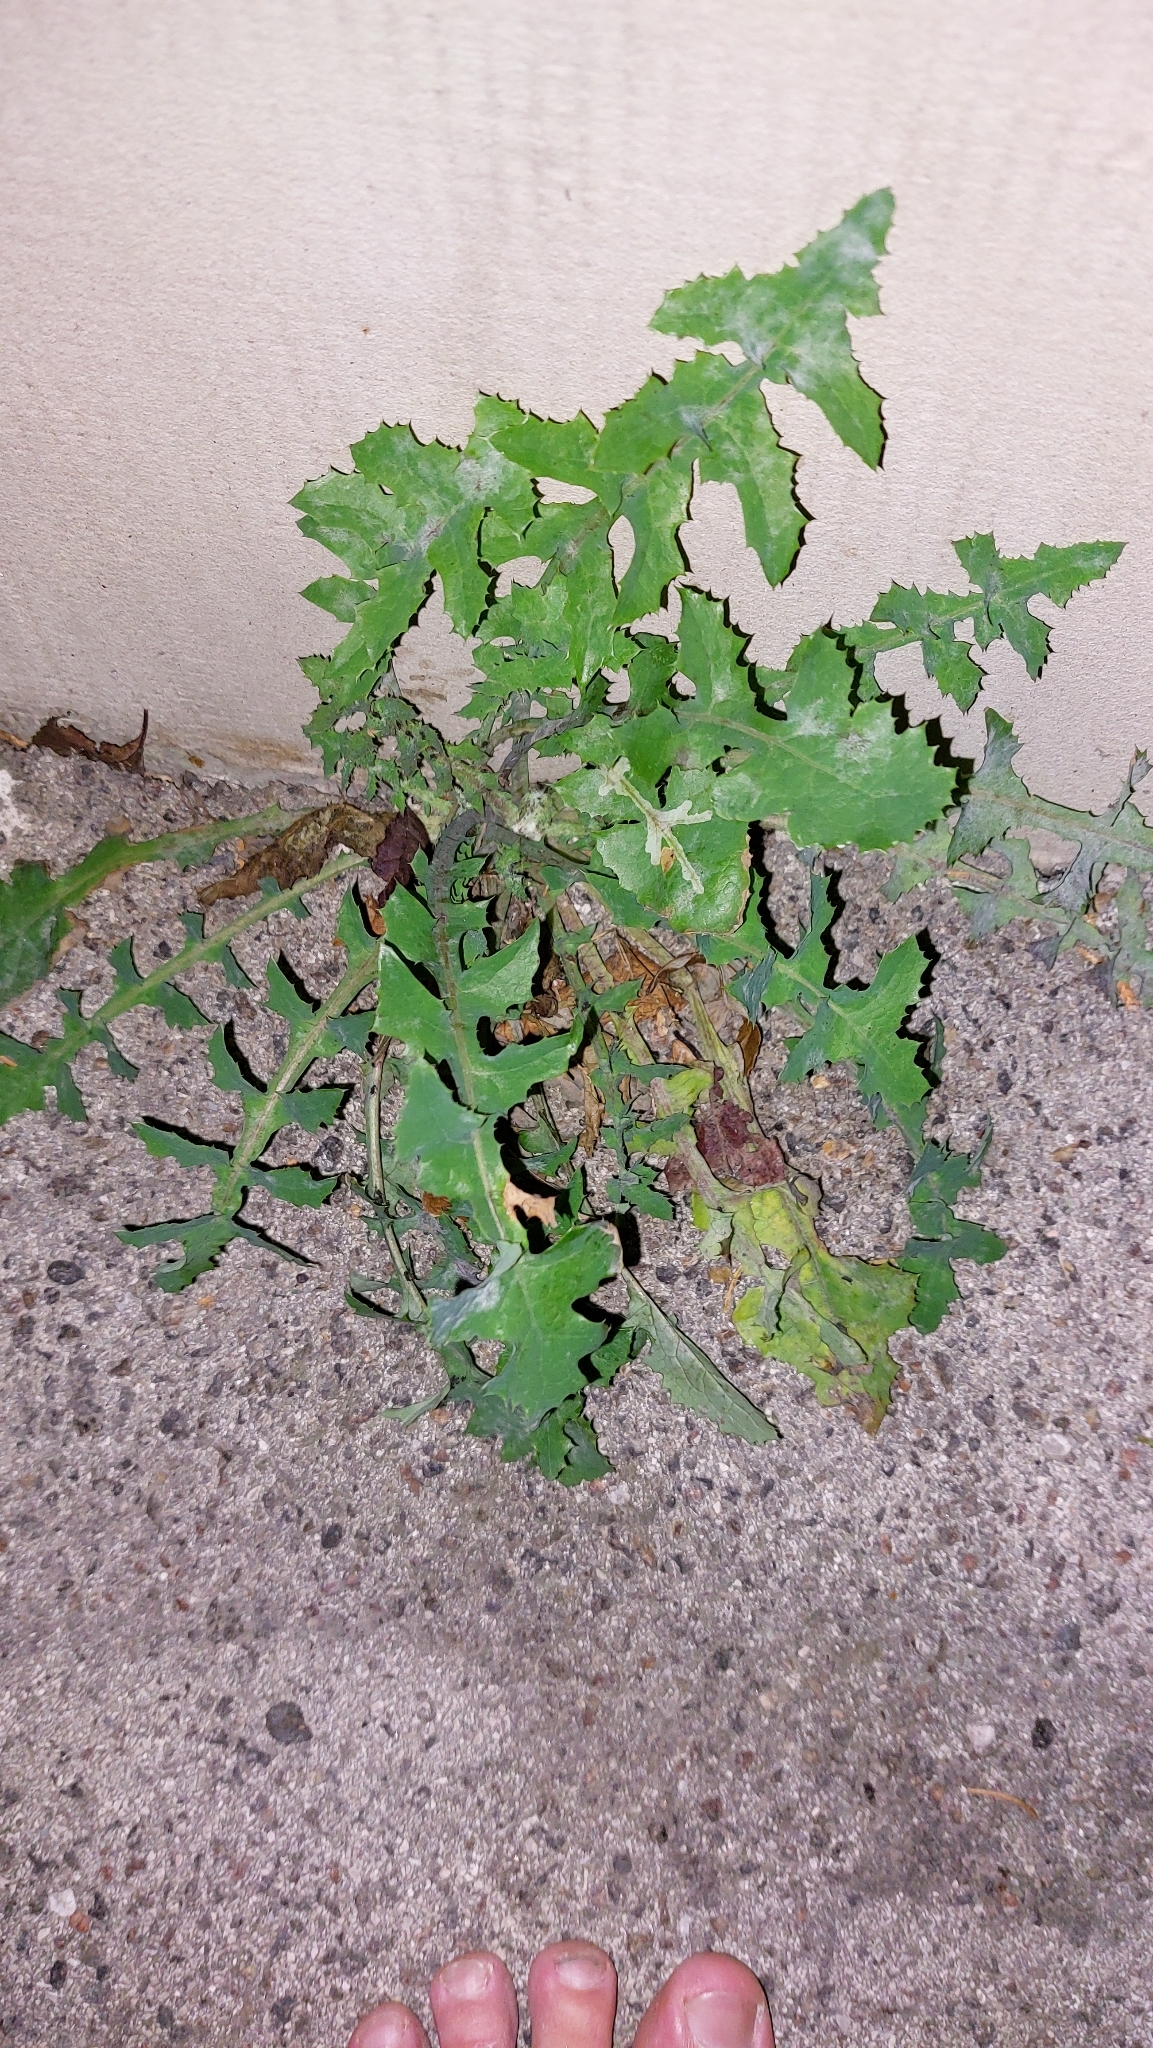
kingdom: Plantae
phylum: Tracheophyta
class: Magnoliopsida
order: Asterales
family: Asteraceae
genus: Sonchus
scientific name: Sonchus oleraceus
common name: Common sowthistle
